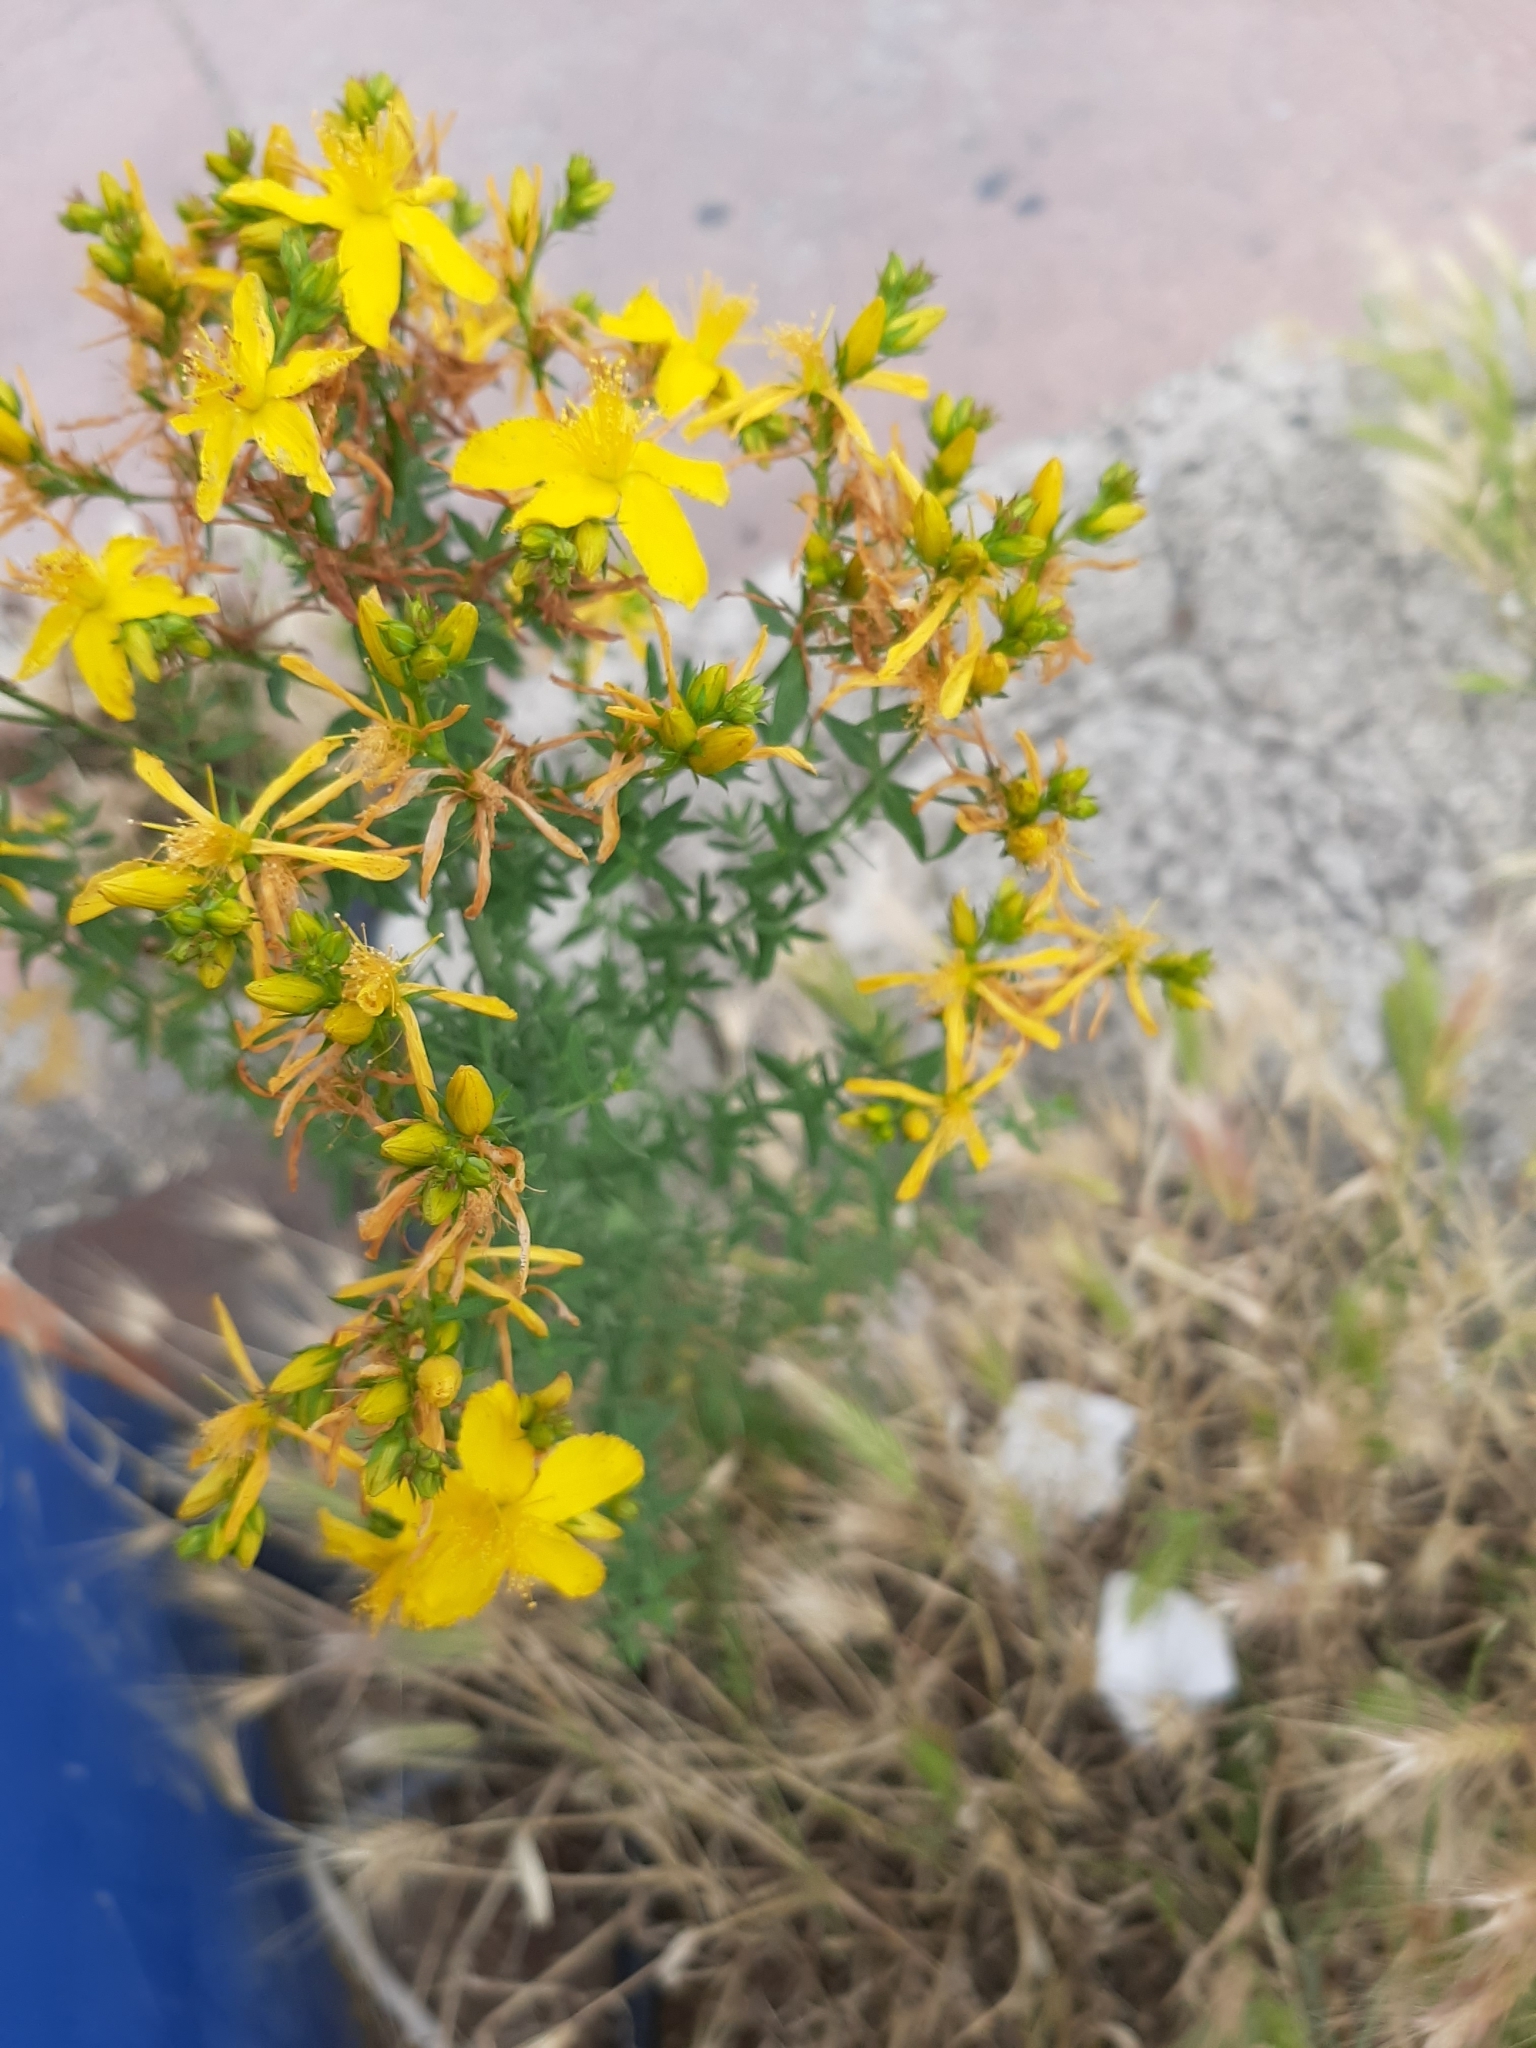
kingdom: Plantae
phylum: Tracheophyta
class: Magnoliopsida
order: Malpighiales
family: Hypericaceae
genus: Hypericum
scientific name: Hypericum perforatum
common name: Common st. johnswort
